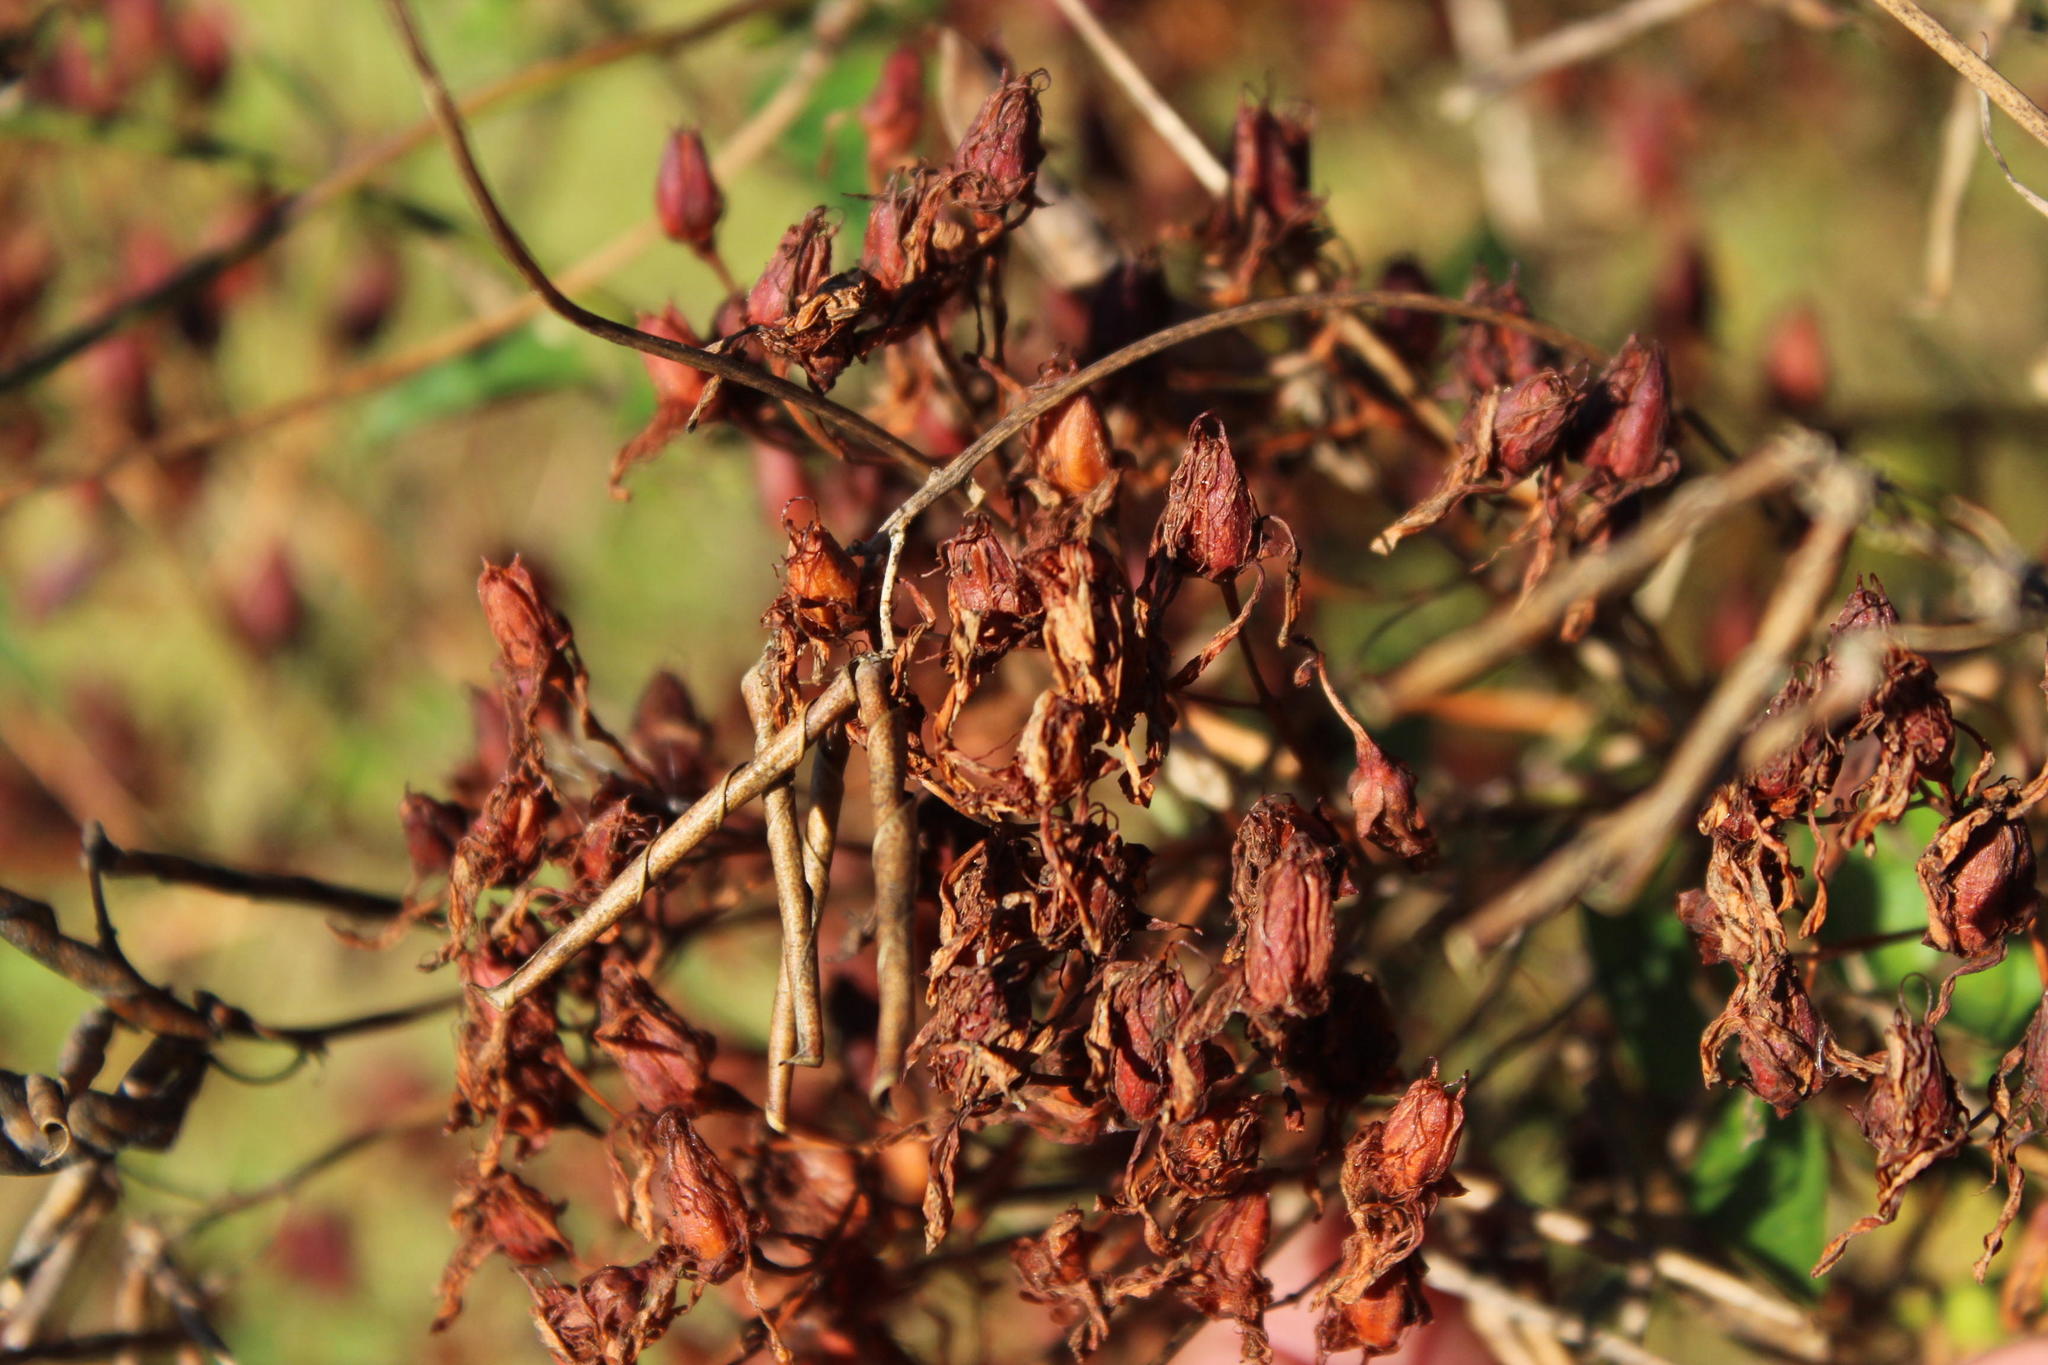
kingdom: Plantae
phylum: Tracheophyta
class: Magnoliopsida
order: Malpighiales
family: Hypericaceae
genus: Hypericum
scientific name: Hypericum canariense
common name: Canary island st. johnswort
